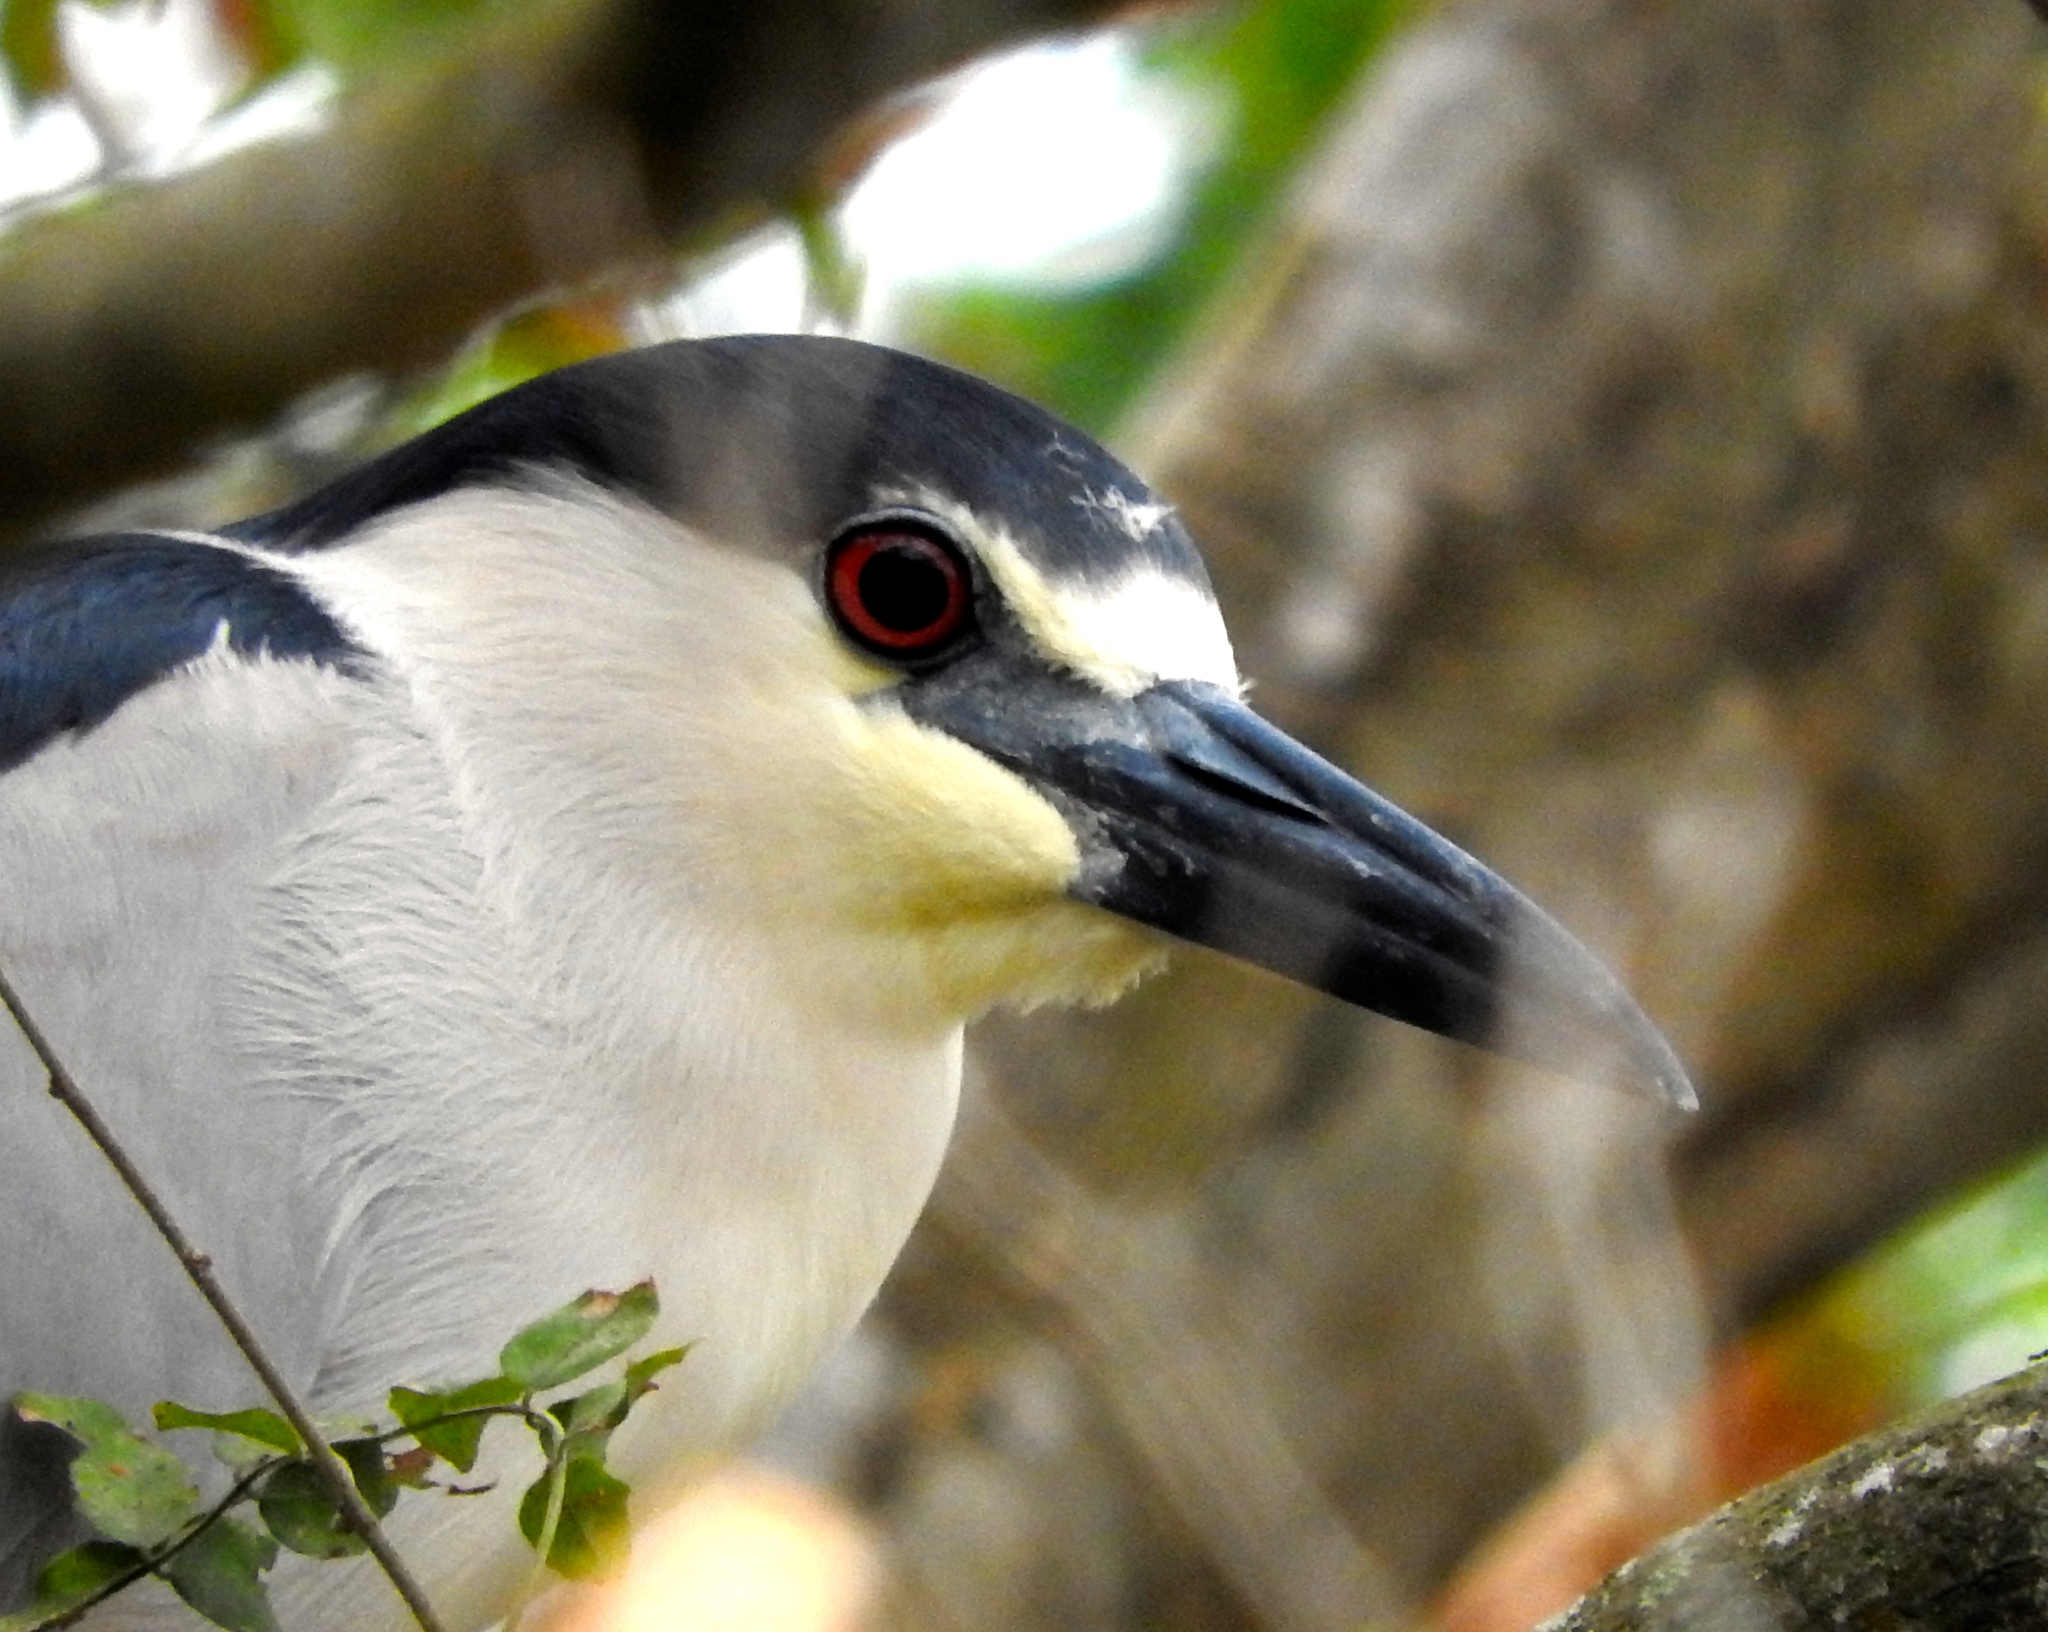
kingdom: Animalia
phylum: Chordata
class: Aves
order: Pelecaniformes
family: Ardeidae
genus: Nycticorax
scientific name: Nycticorax nycticorax
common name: Black-crowned night heron
